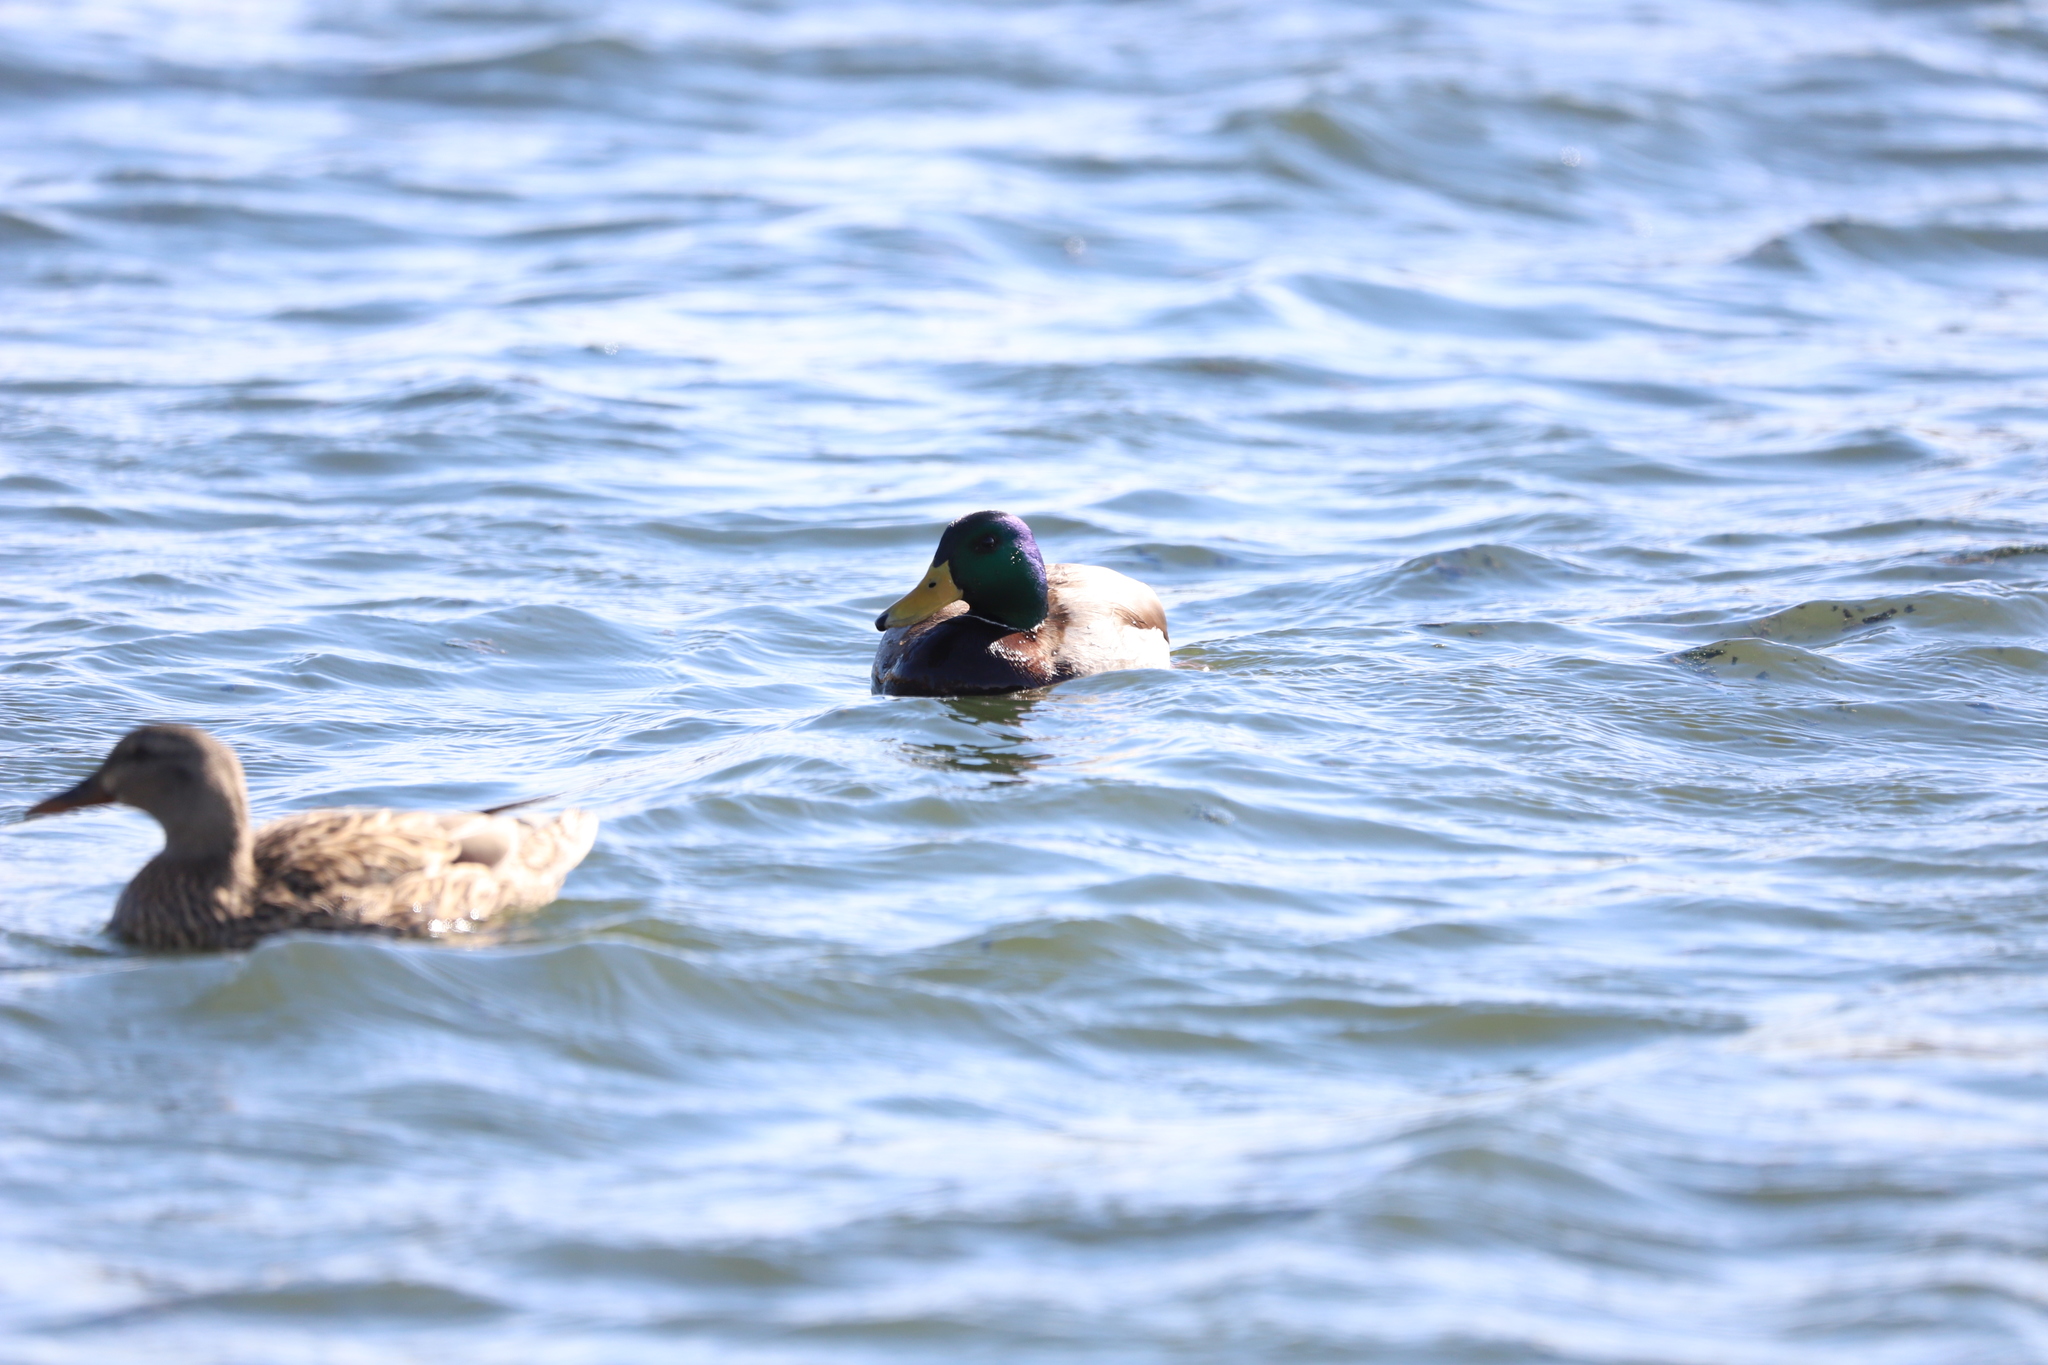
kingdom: Animalia
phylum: Chordata
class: Aves
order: Anseriformes
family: Anatidae
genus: Anas
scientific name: Anas platyrhynchos
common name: Mallard
